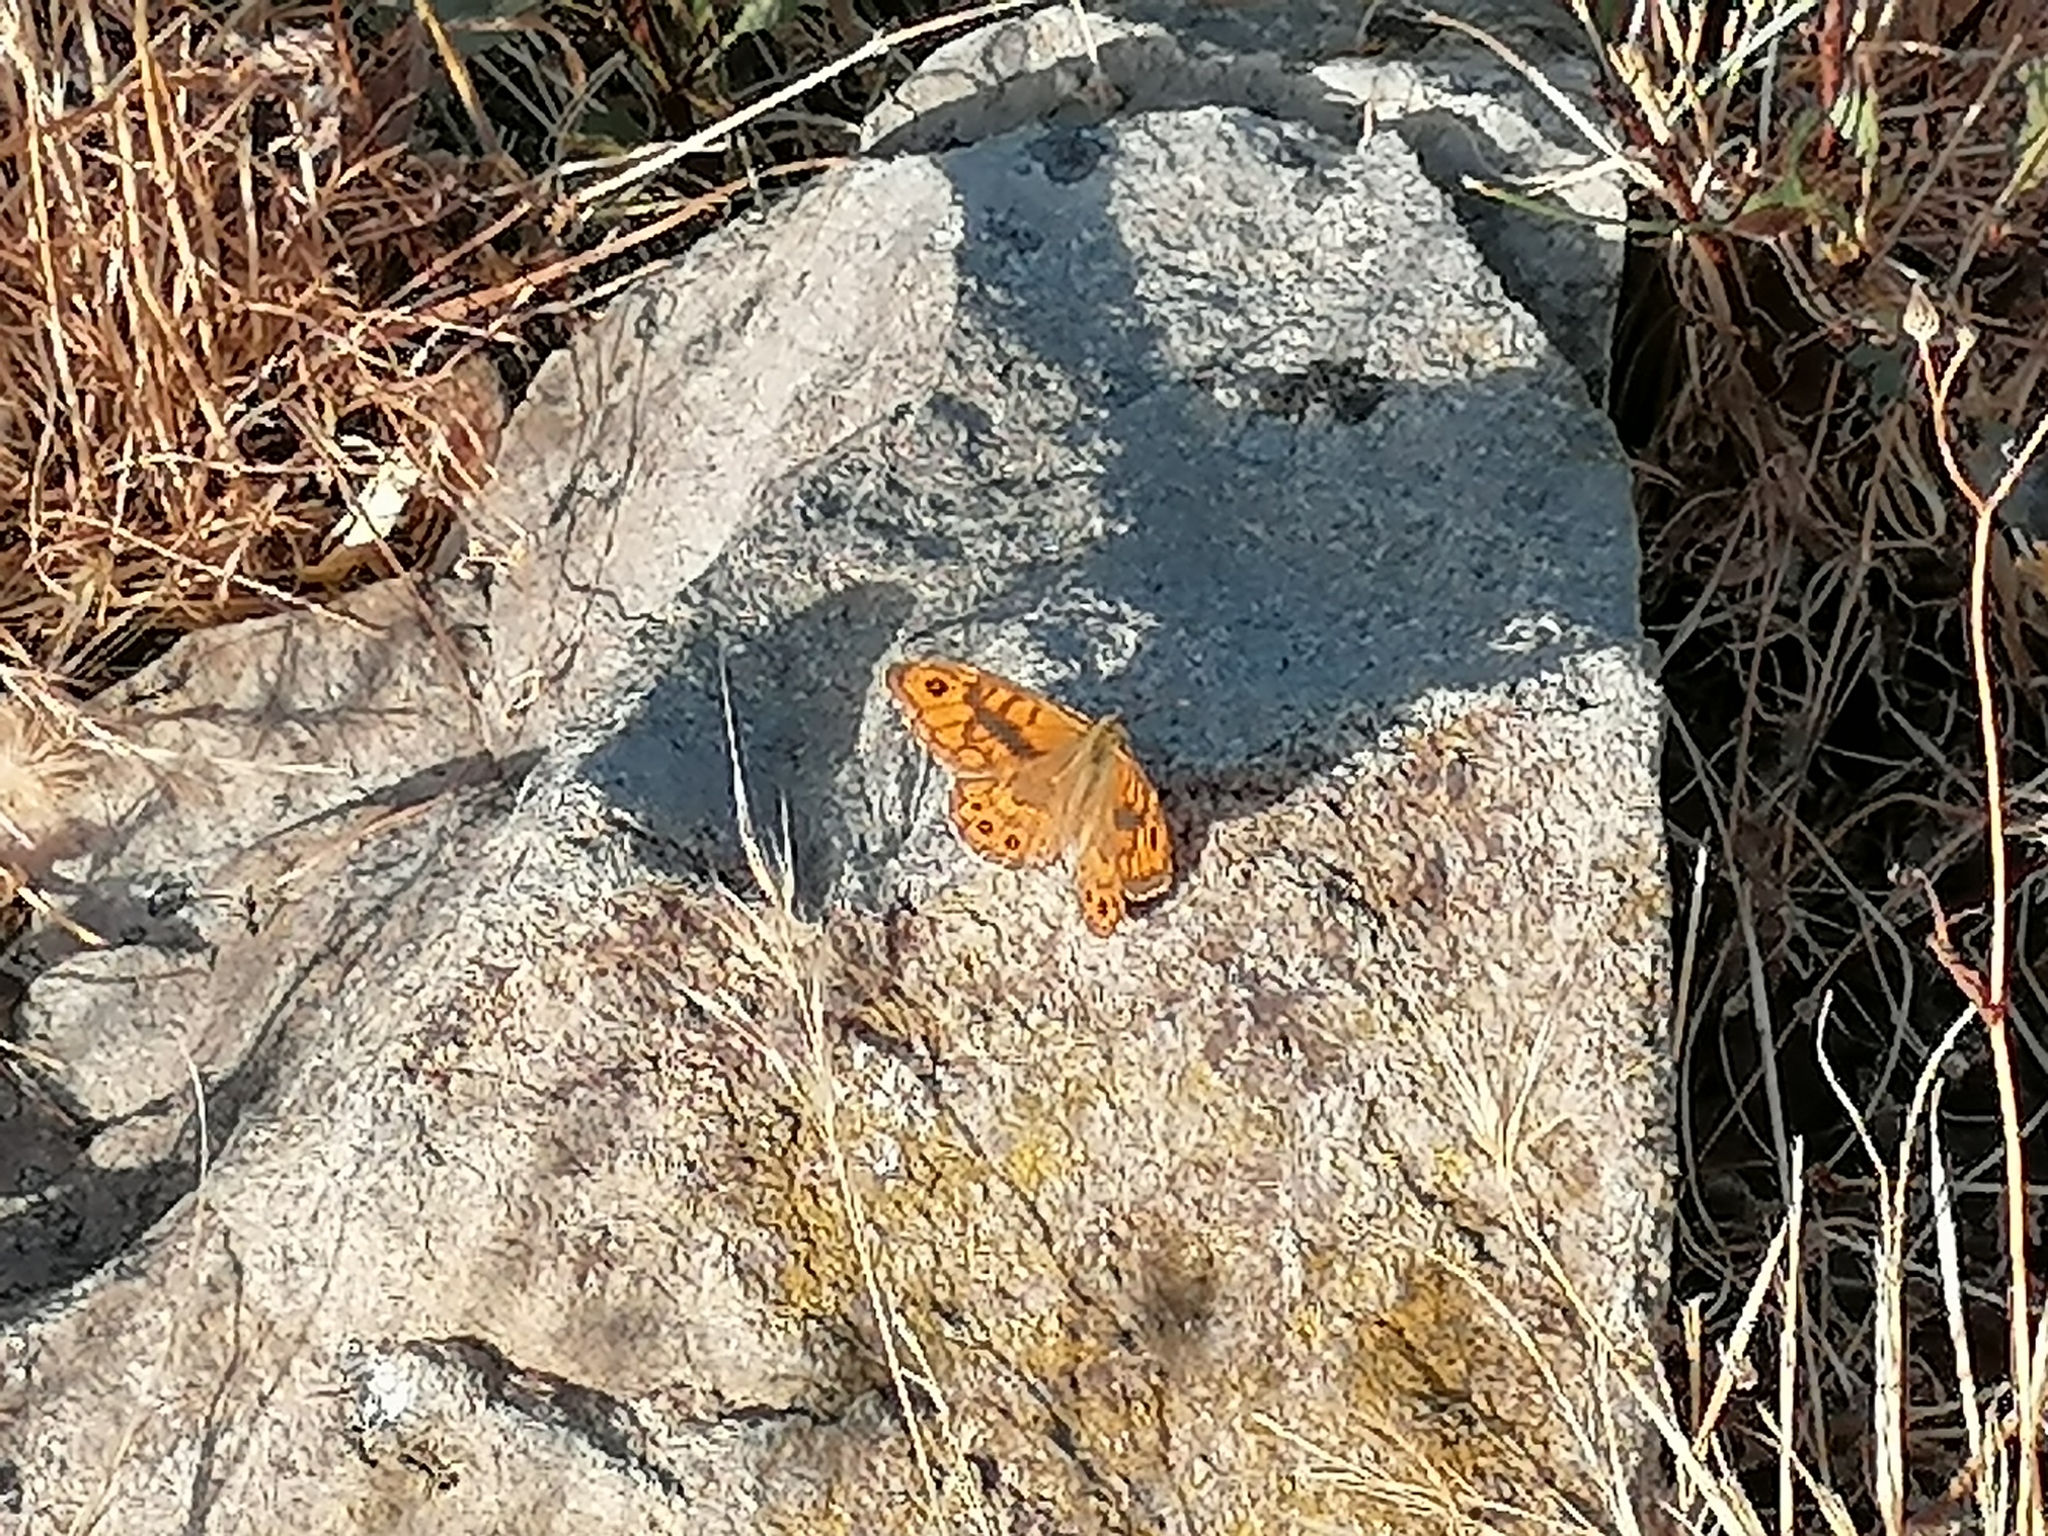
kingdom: Animalia
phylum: Arthropoda
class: Insecta
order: Lepidoptera
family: Nymphalidae
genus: Pararge
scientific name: Pararge Lasiommata megera
